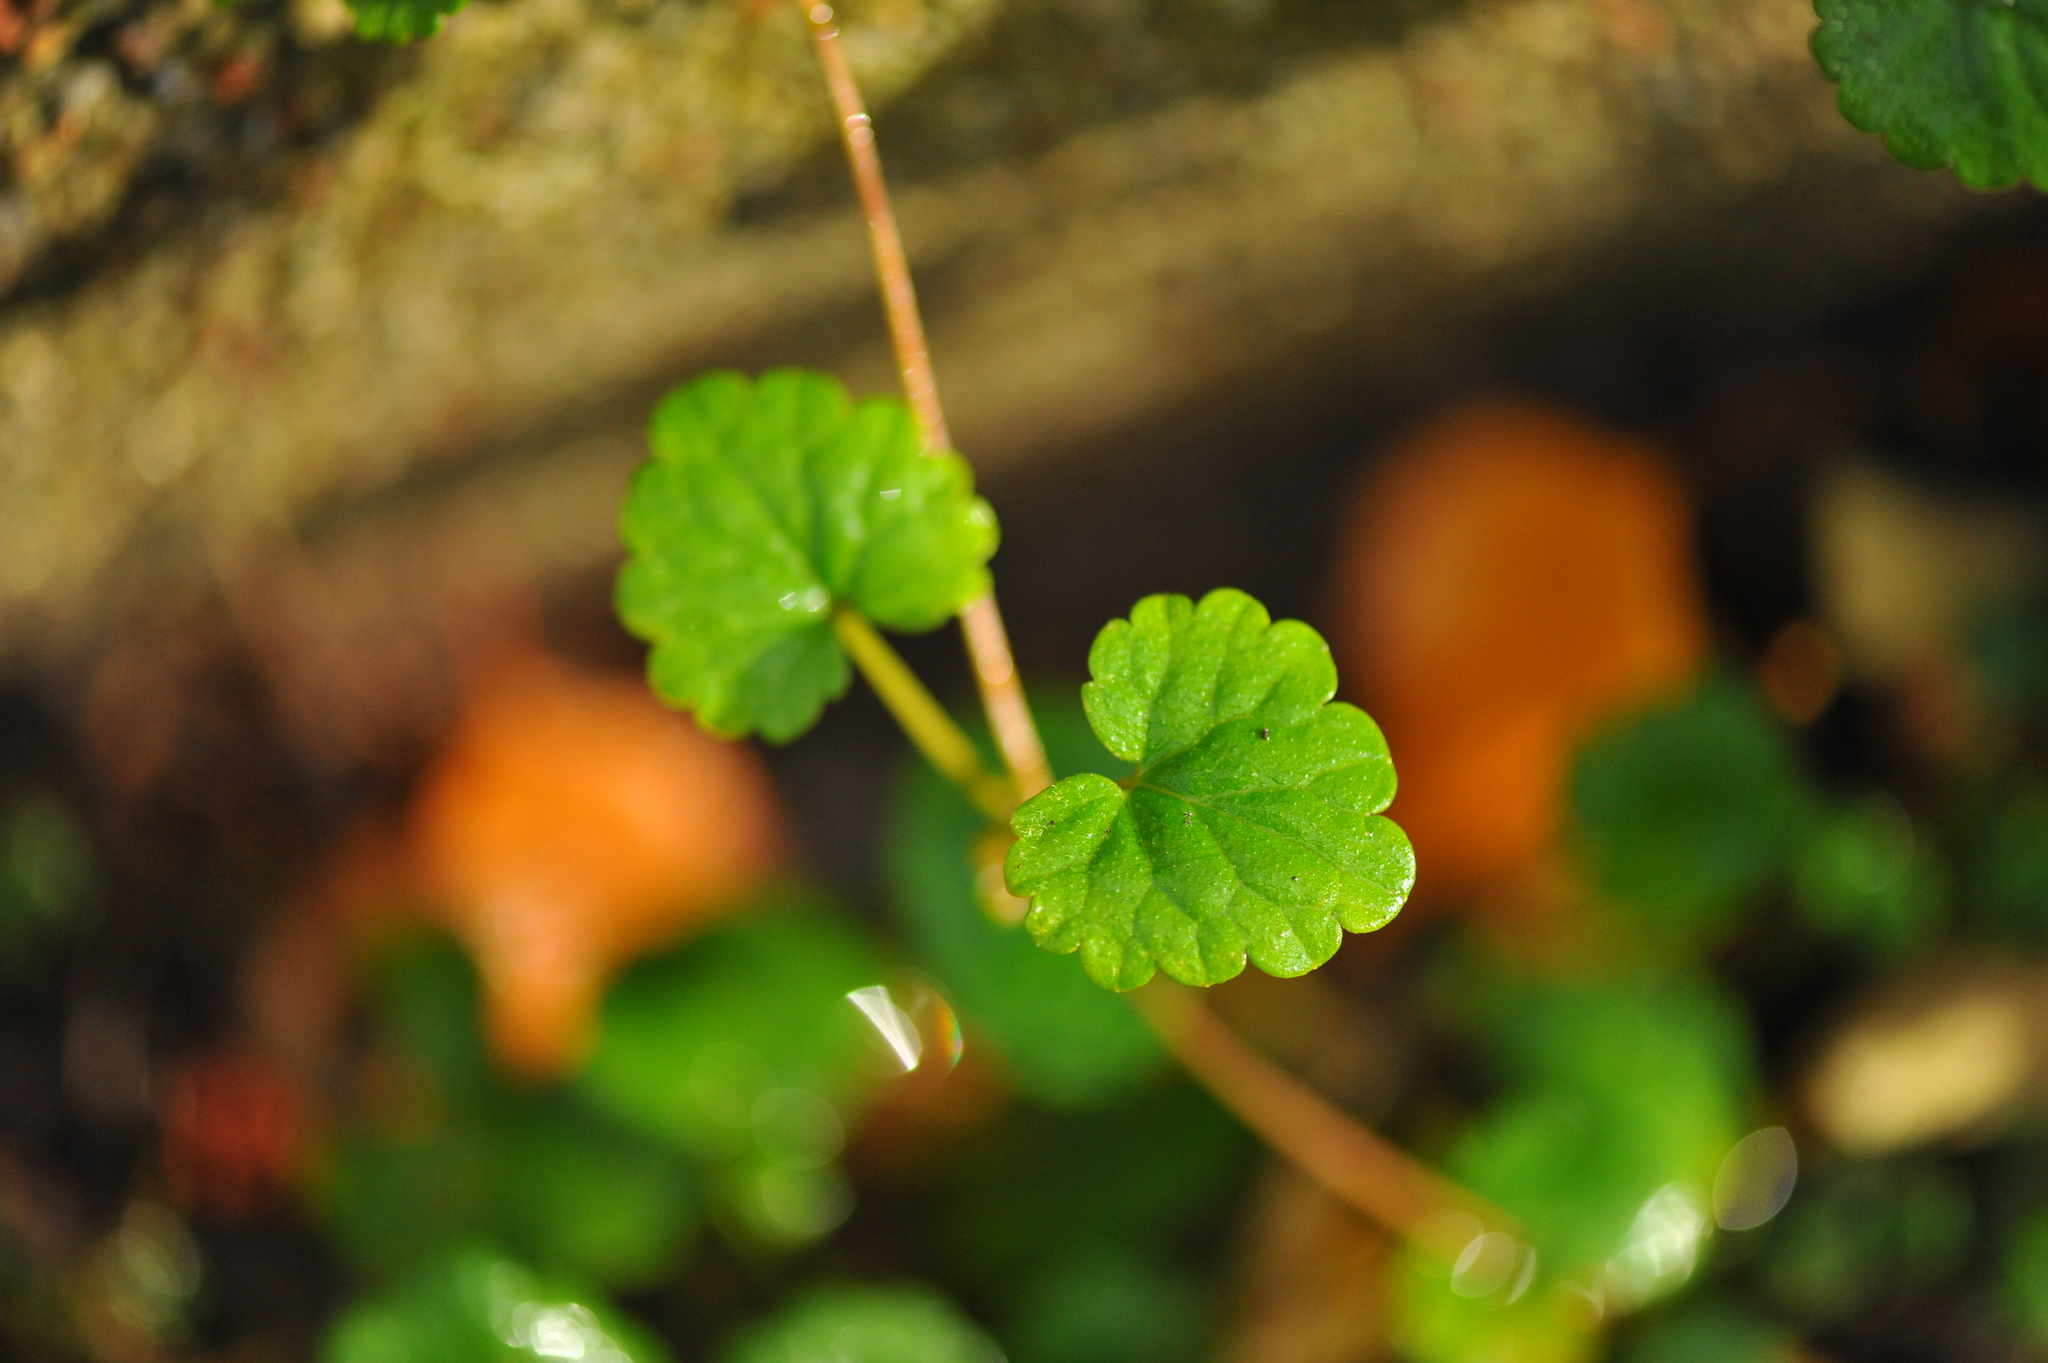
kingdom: Plantae
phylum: Tracheophyta
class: Magnoliopsida
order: Lamiales
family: Lamiaceae
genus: Glechoma
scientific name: Glechoma hederacea
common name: Ground ivy
